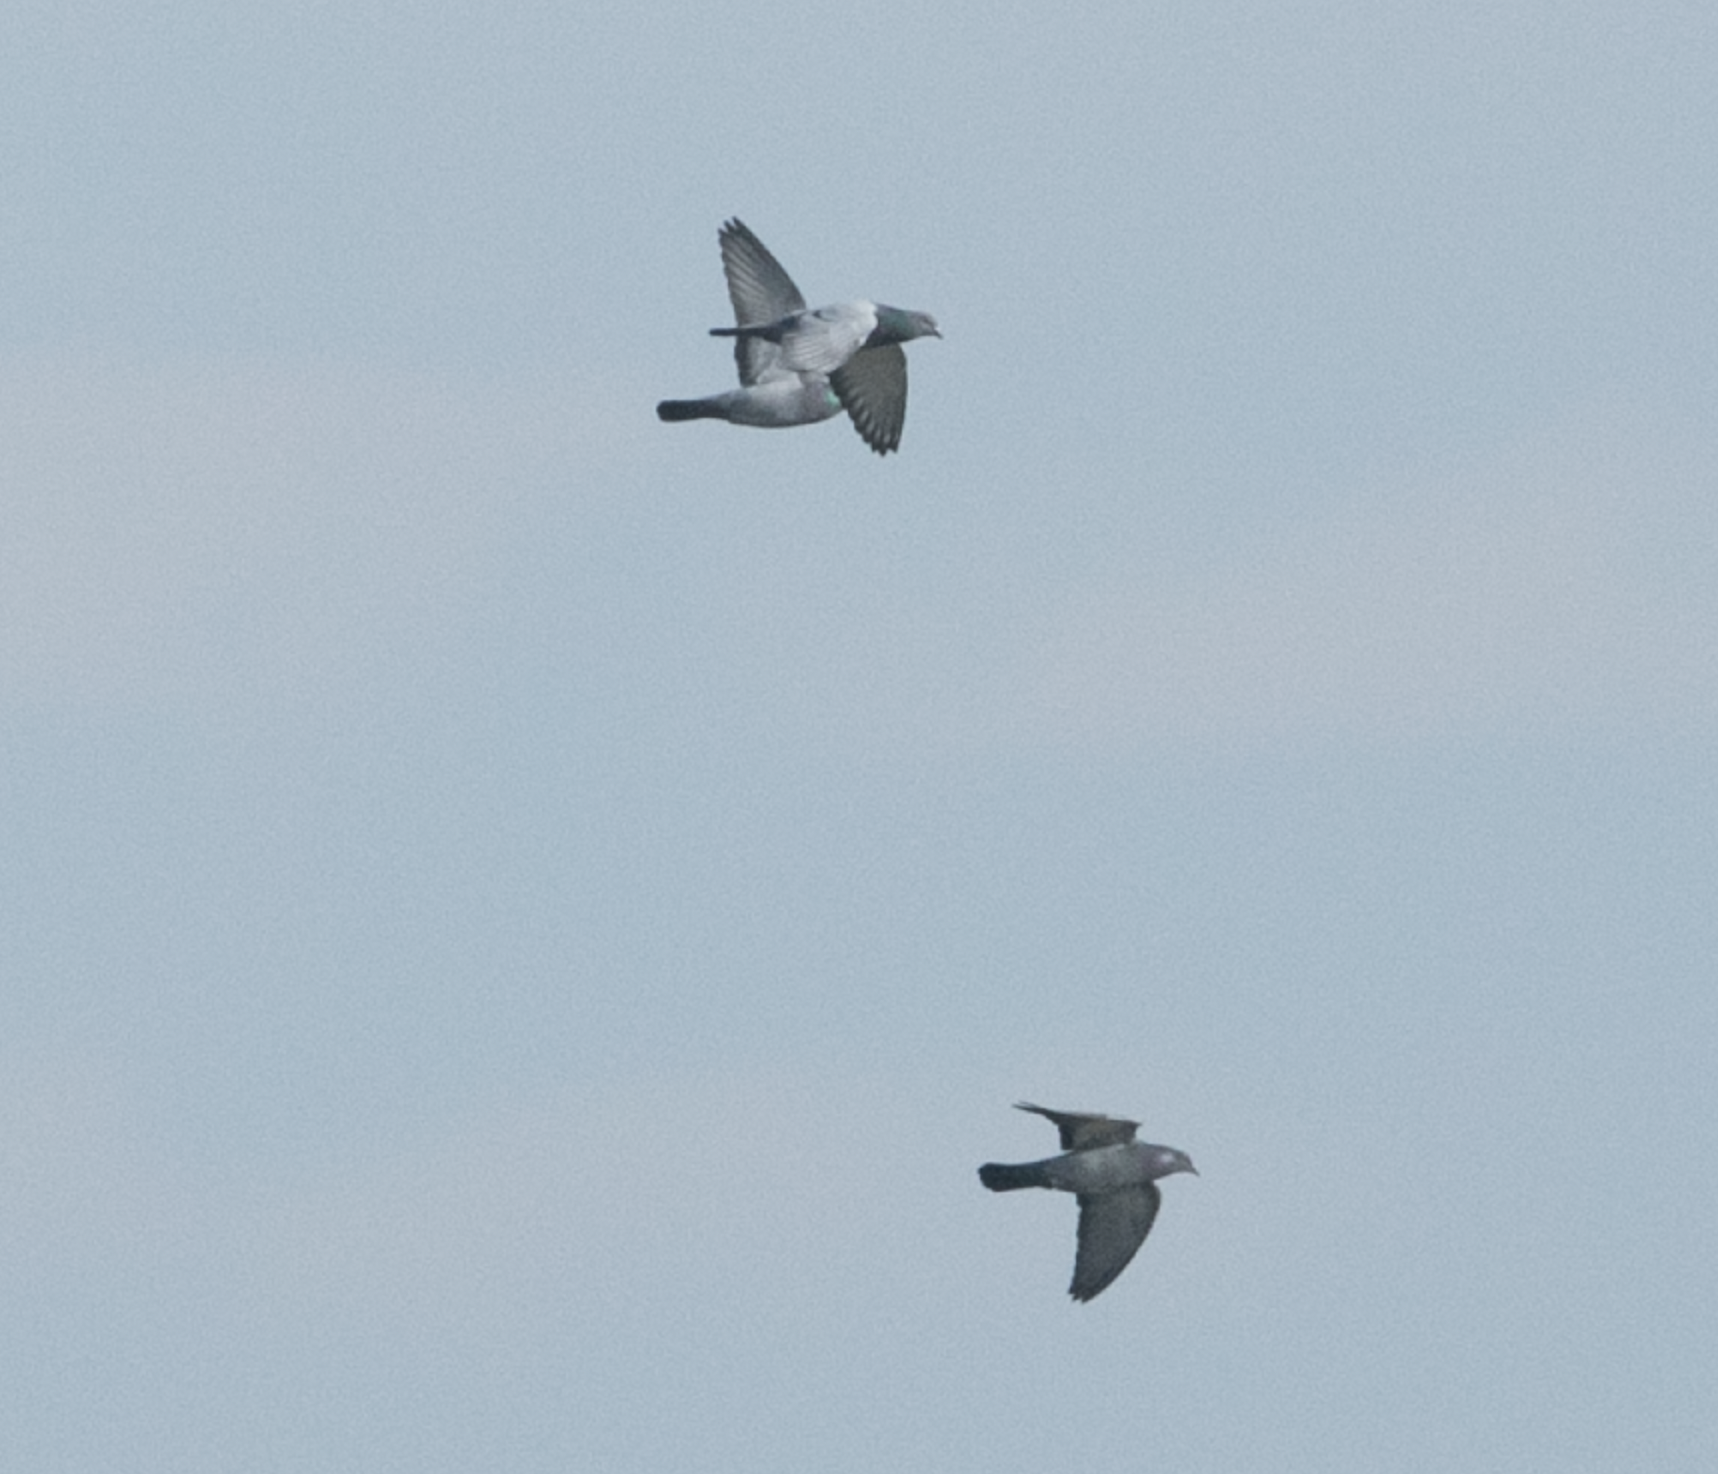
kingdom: Animalia
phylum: Chordata
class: Aves
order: Columbiformes
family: Columbidae
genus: Columba
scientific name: Columba livia
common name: Rock pigeon
